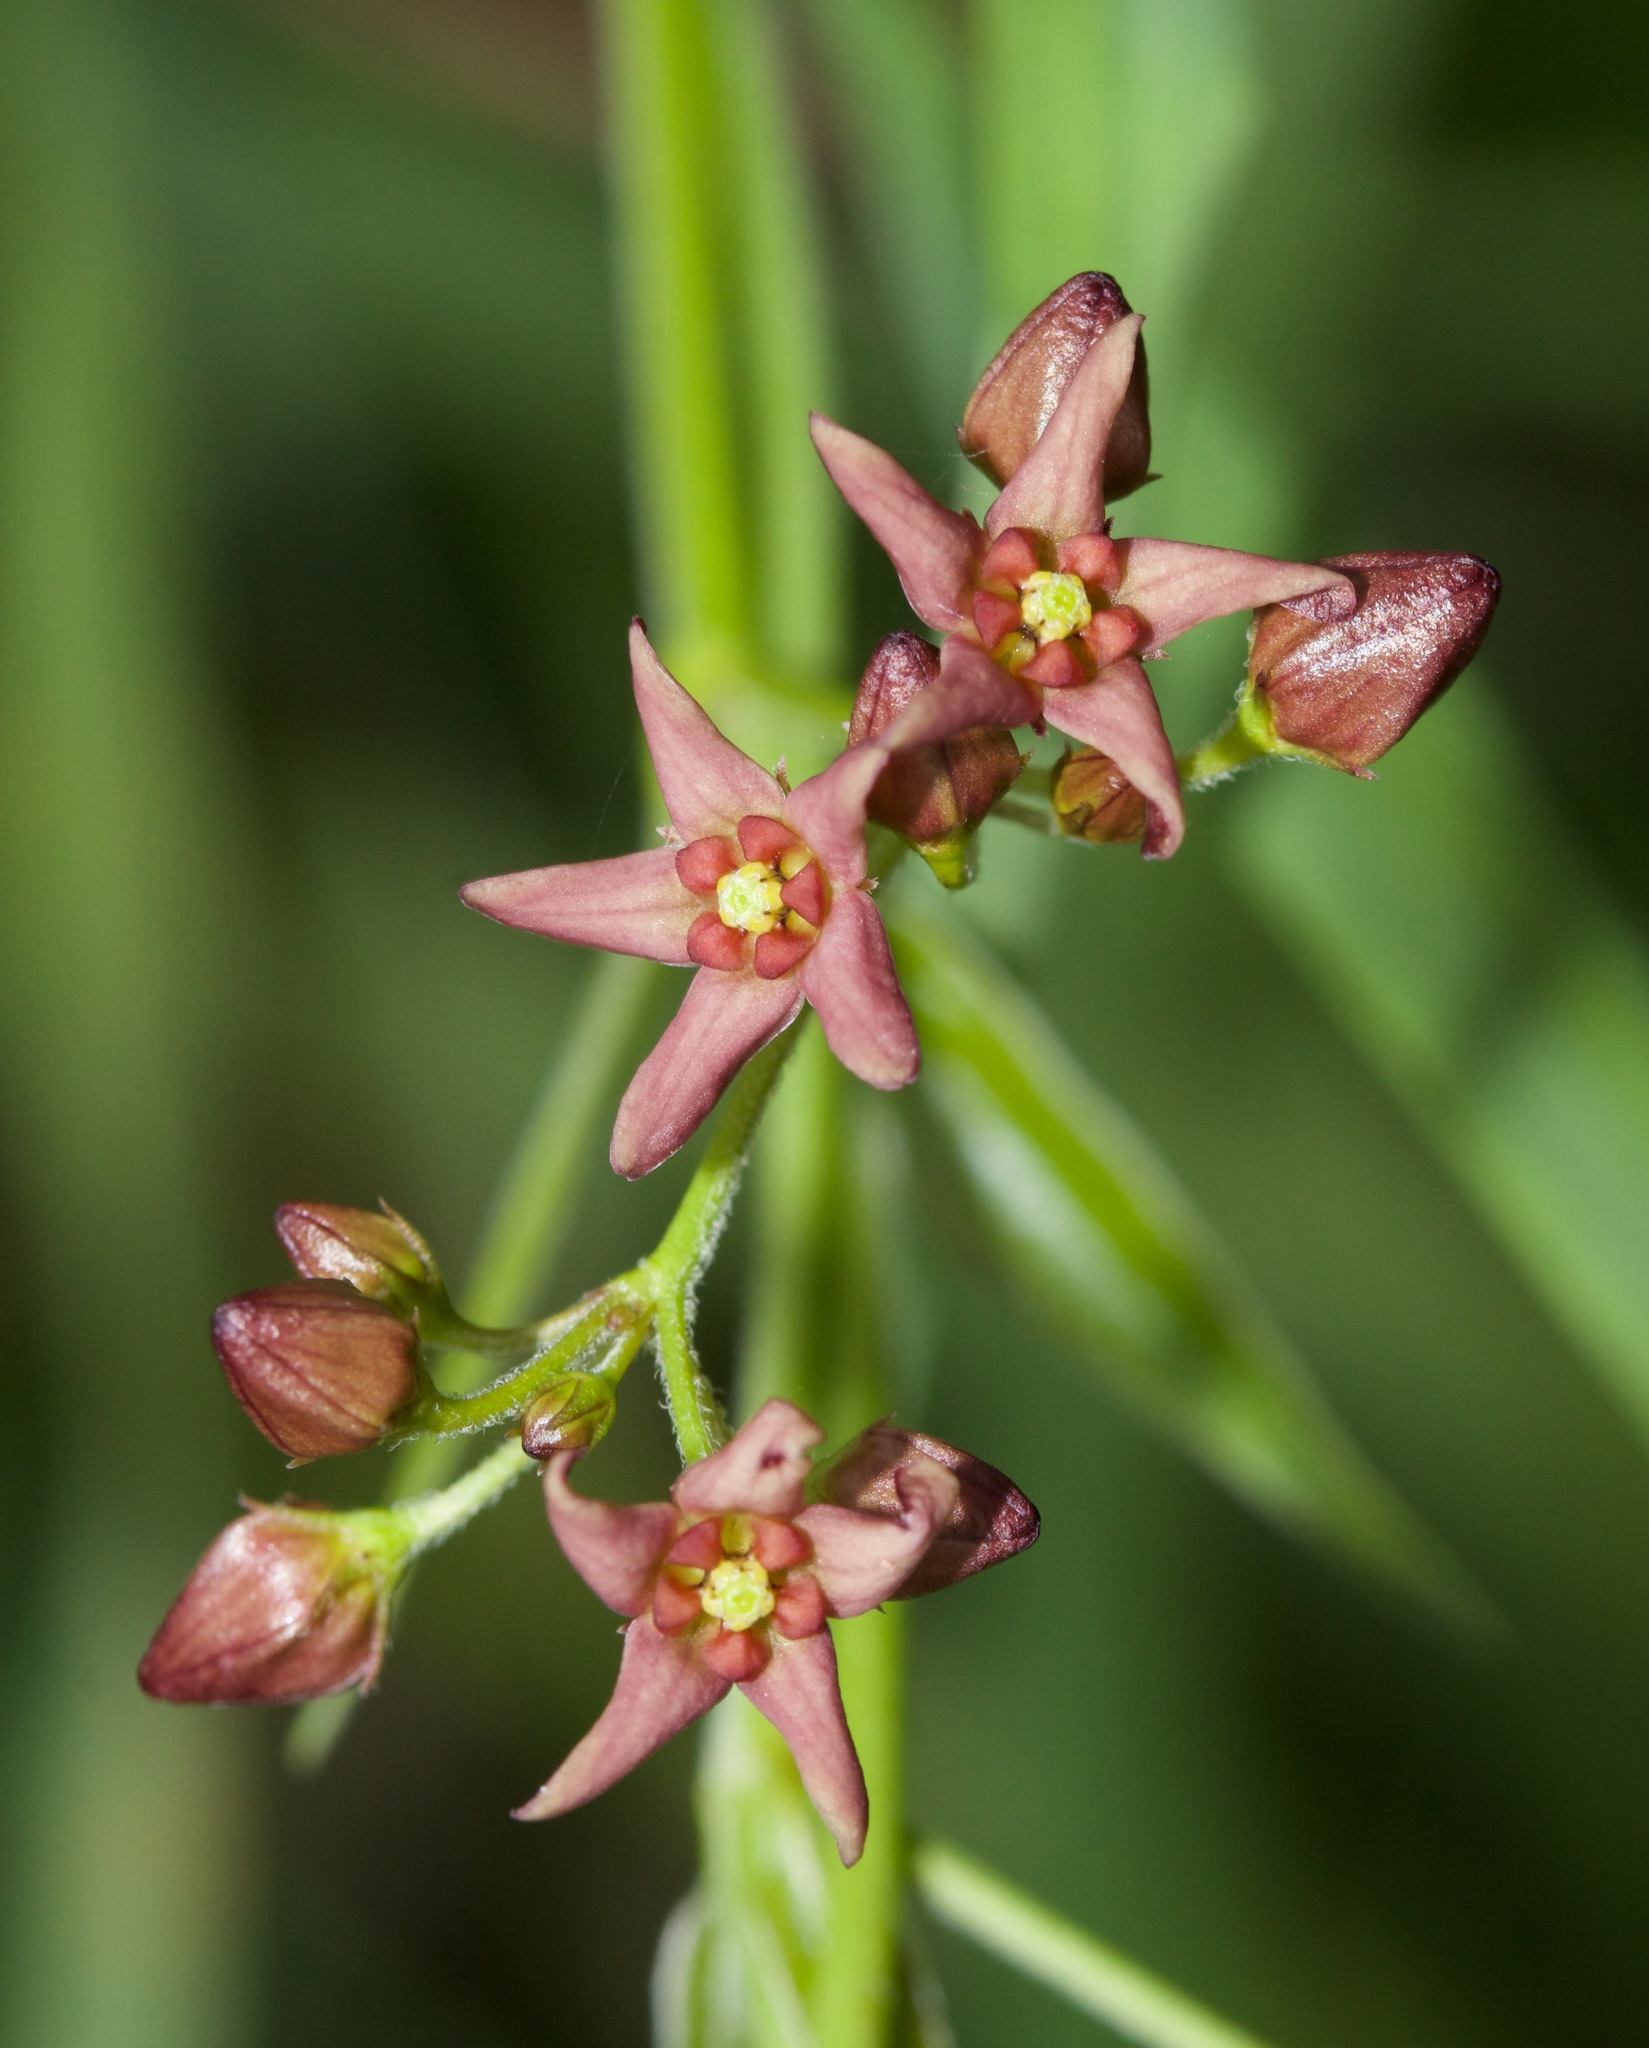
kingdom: Plantae
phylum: Tracheophyta
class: Magnoliopsida
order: Gentianales
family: Apocynaceae
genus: Vincetoxicum
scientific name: Vincetoxicum rossicum
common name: Dog-strangling vine
